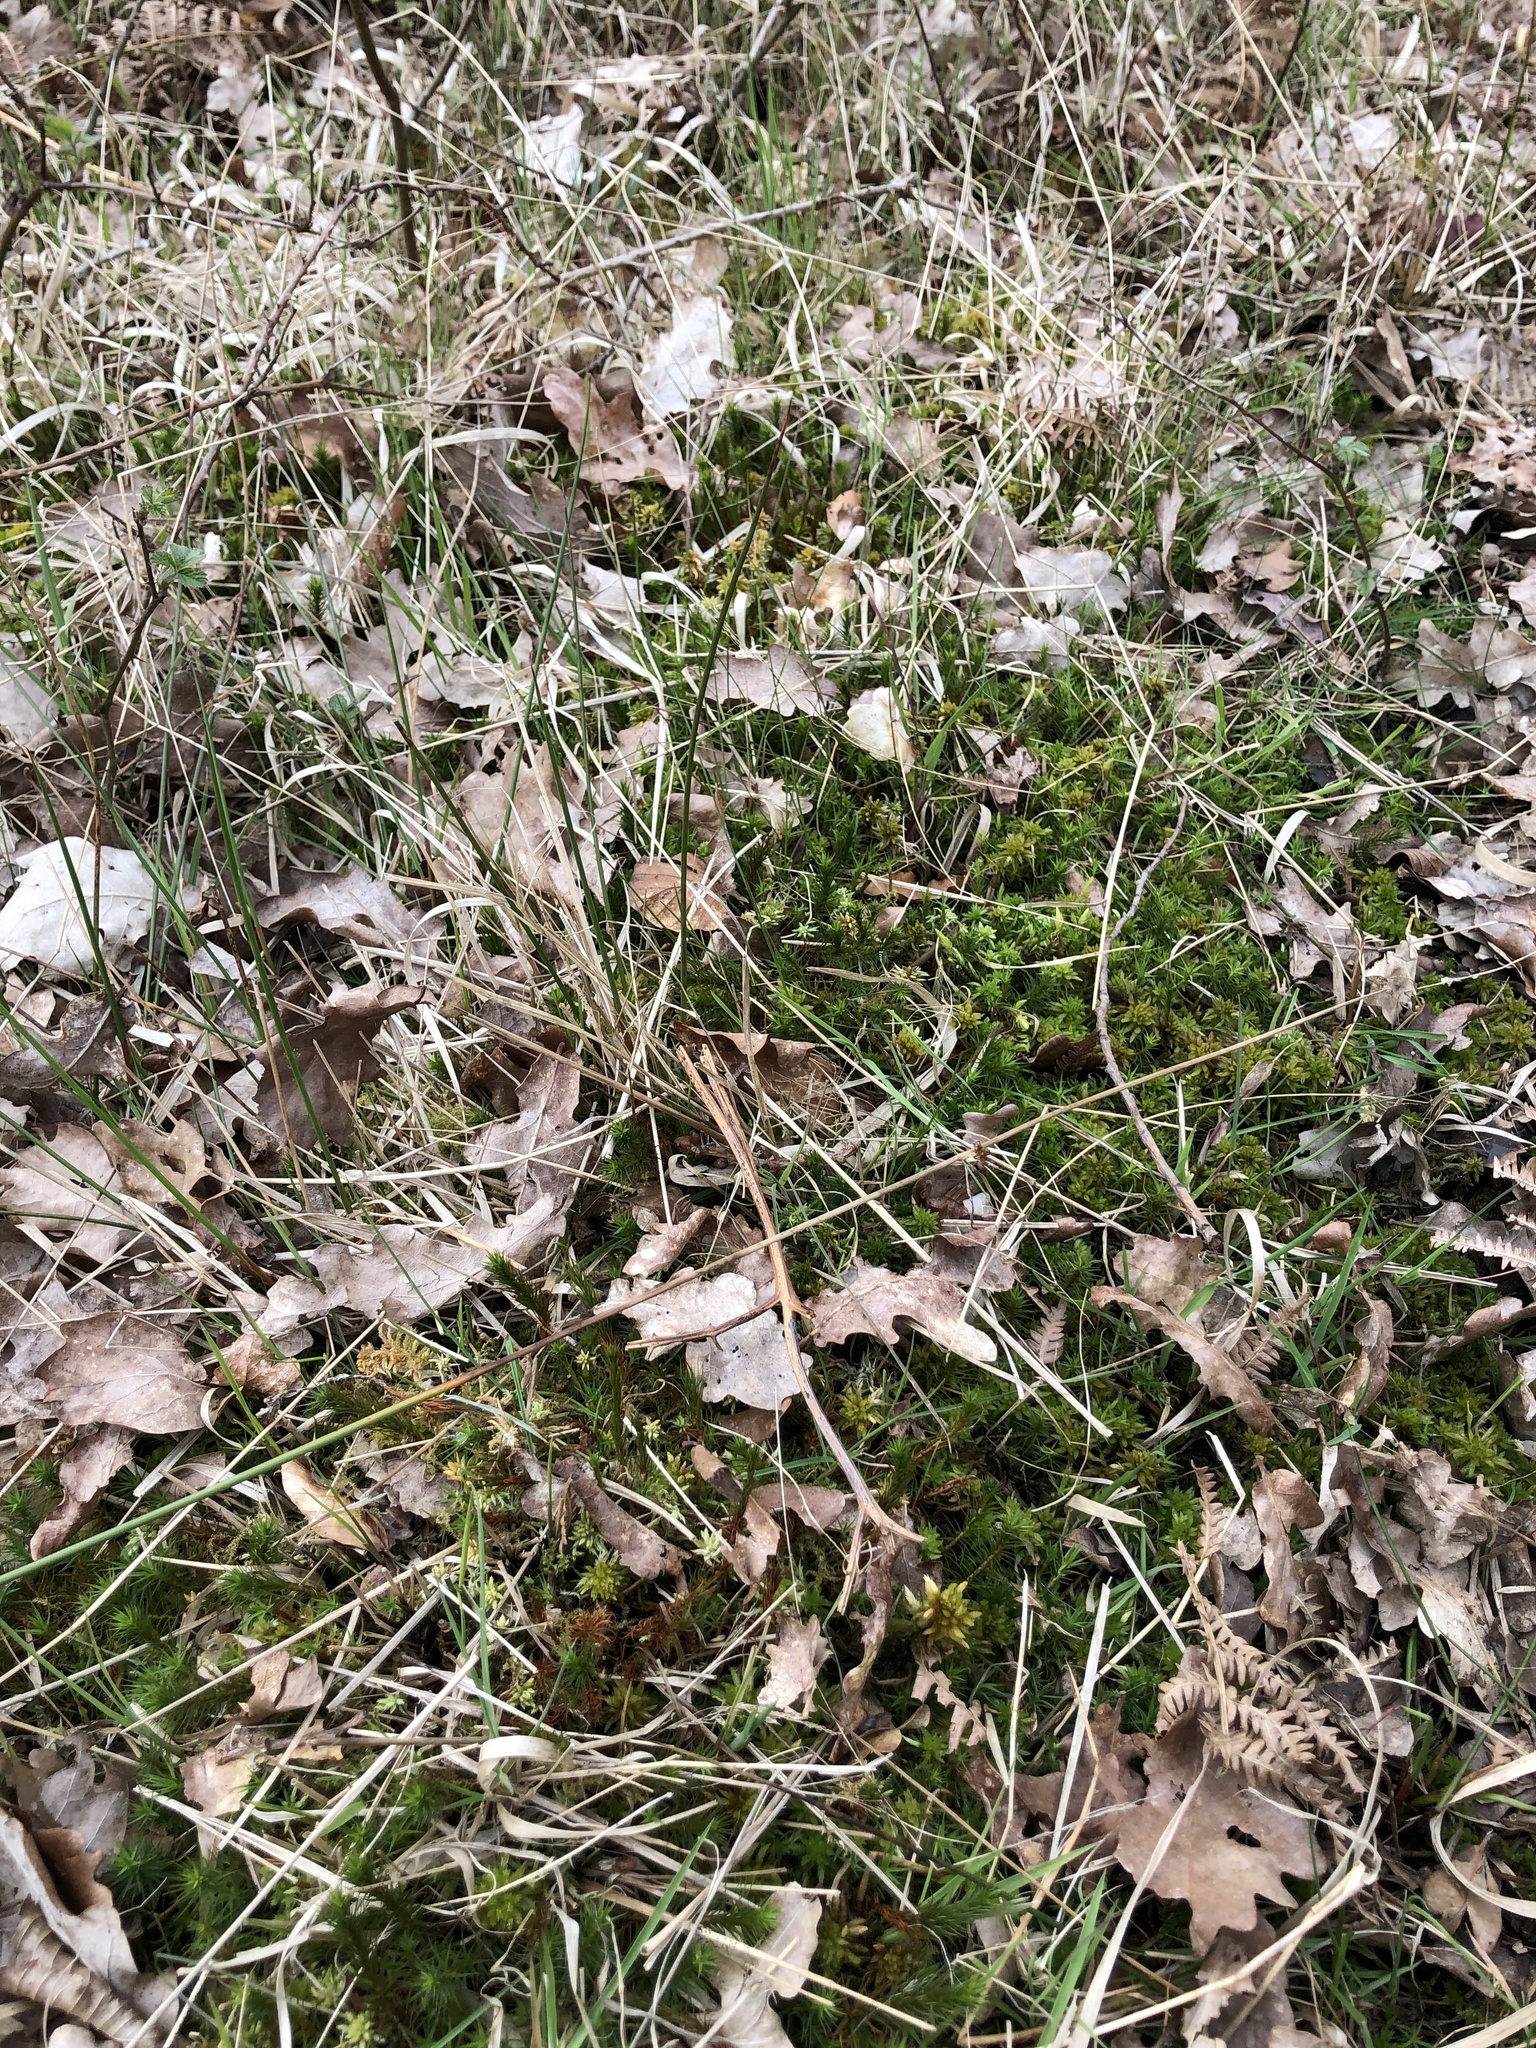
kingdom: Plantae
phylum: Bryophyta
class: Sphagnopsida
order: Sphagnales
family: Sphagnaceae
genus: Sphagnum
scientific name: Sphagnum denticulatum
